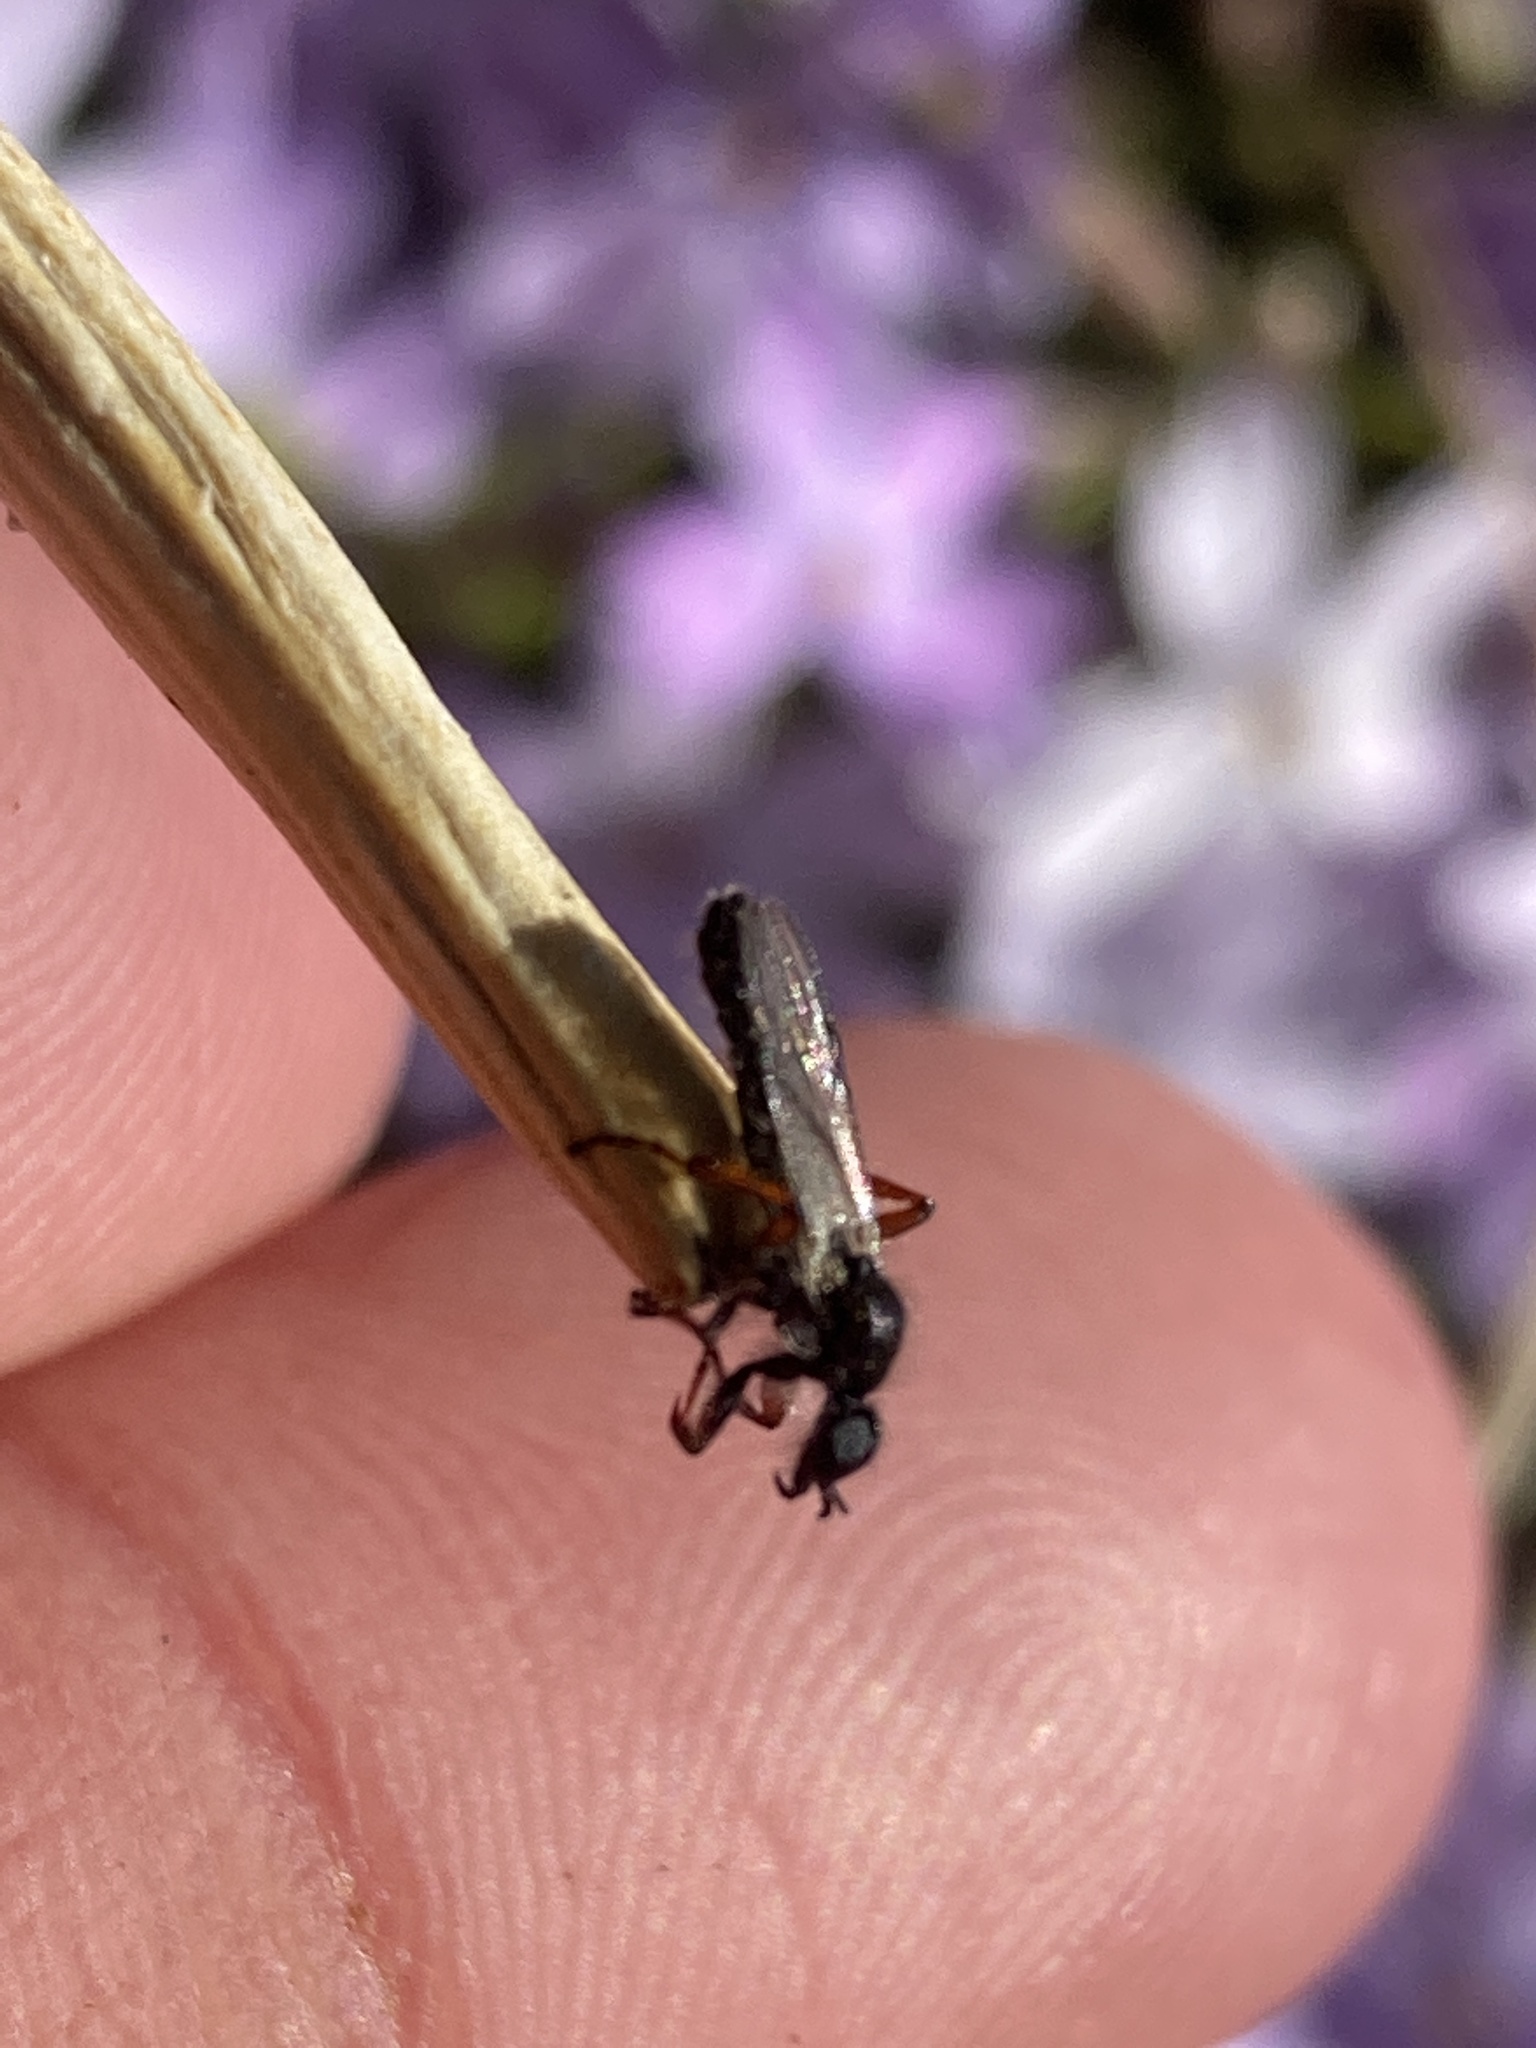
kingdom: Animalia
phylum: Arthropoda
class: Insecta
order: Diptera
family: Bibionidae
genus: Bibio
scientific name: Bibio
